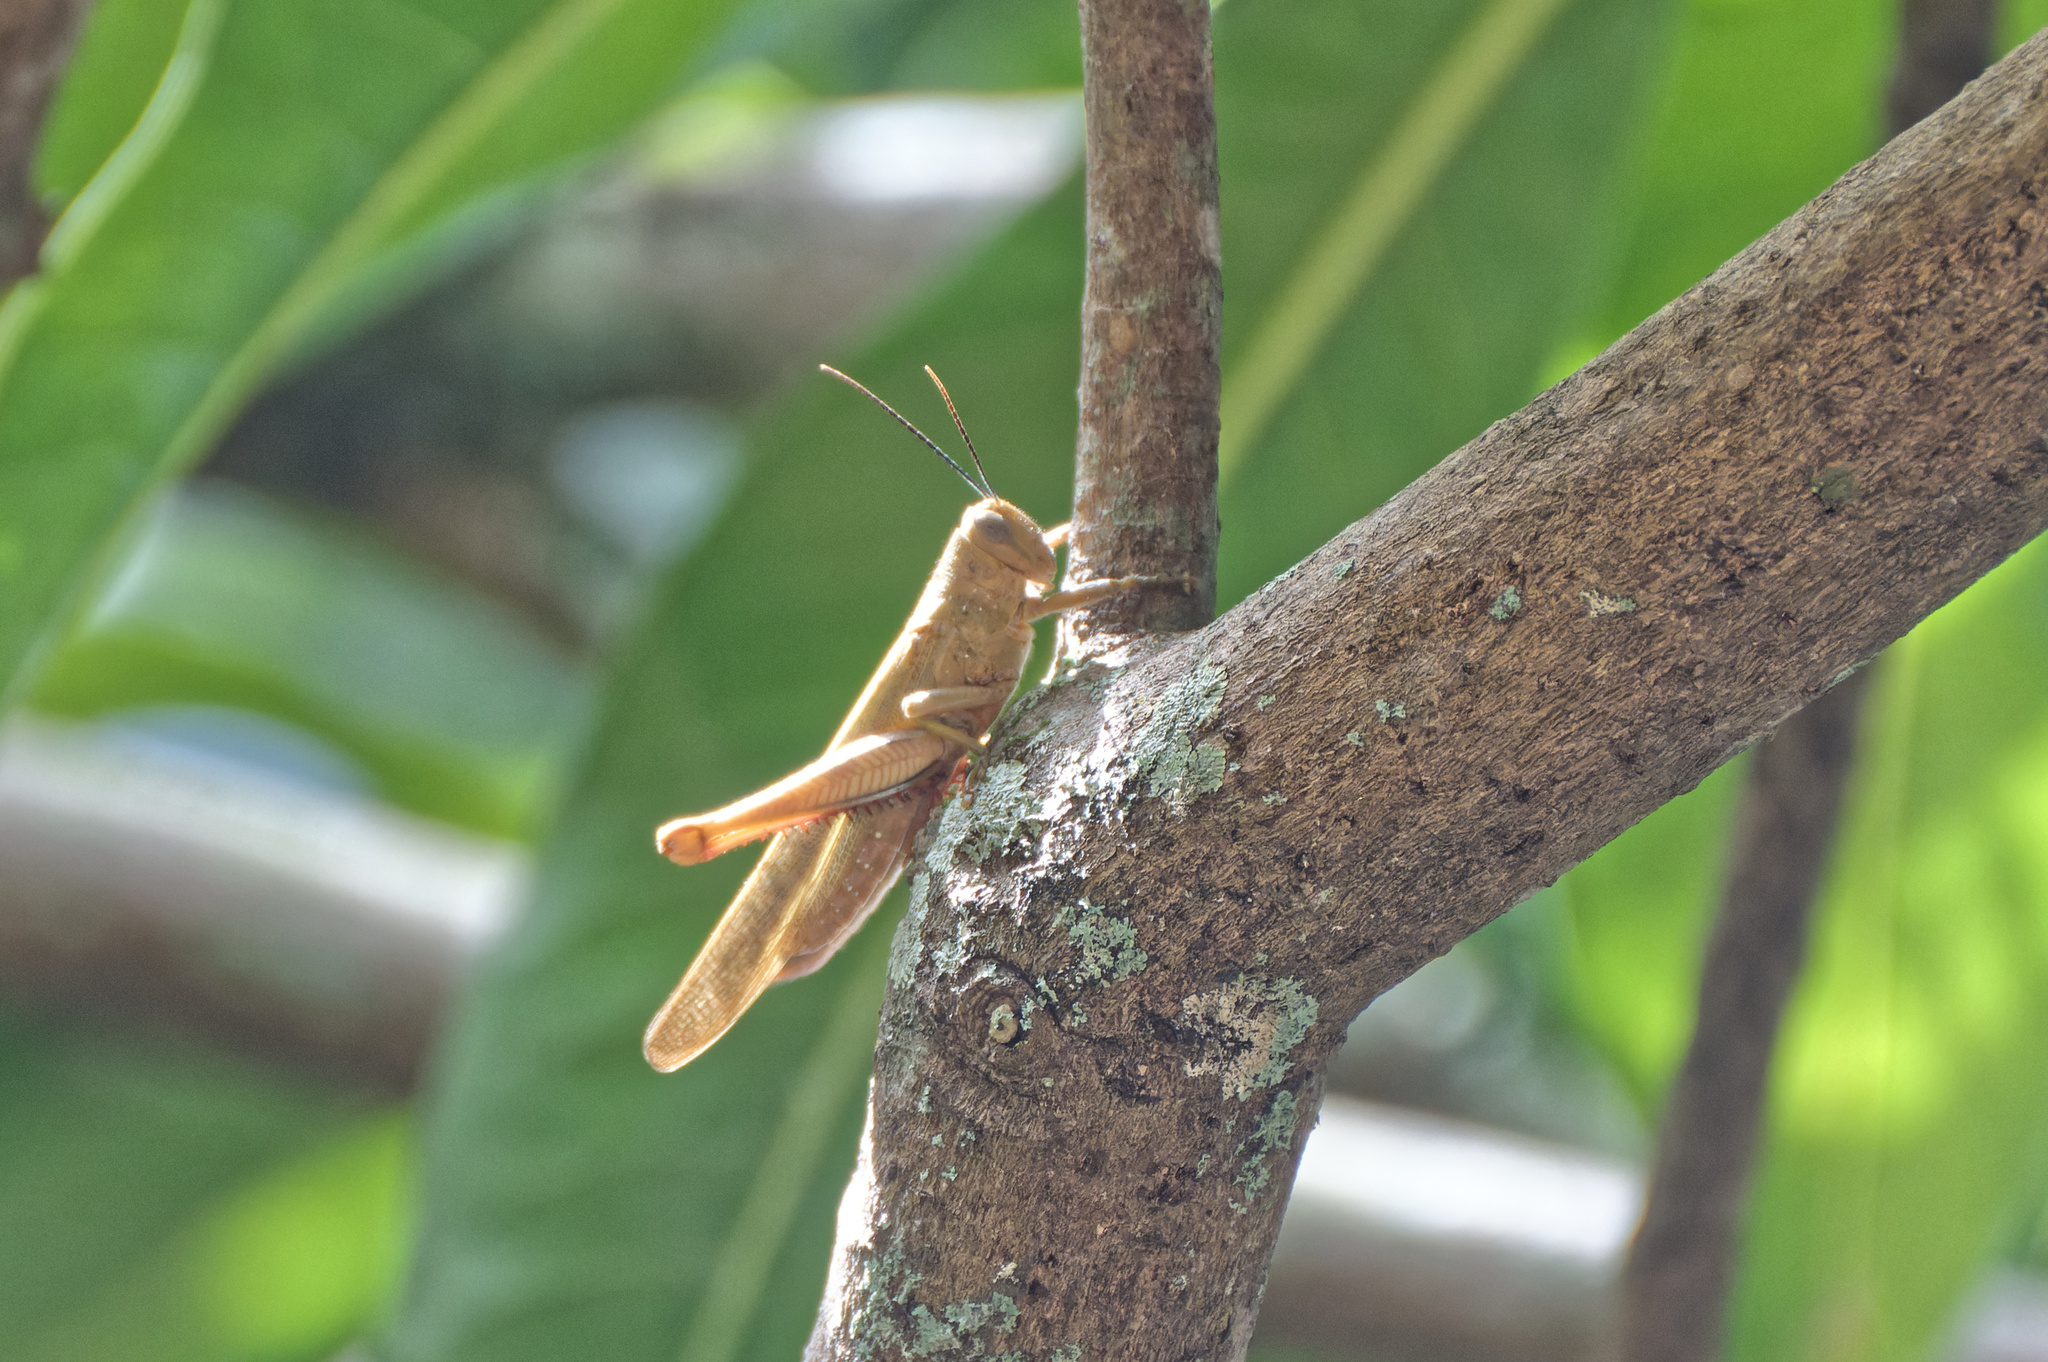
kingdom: Animalia
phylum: Arthropoda
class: Insecta
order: Orthoptera
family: Acrididae
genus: Valanga
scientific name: Valanga irregularis
